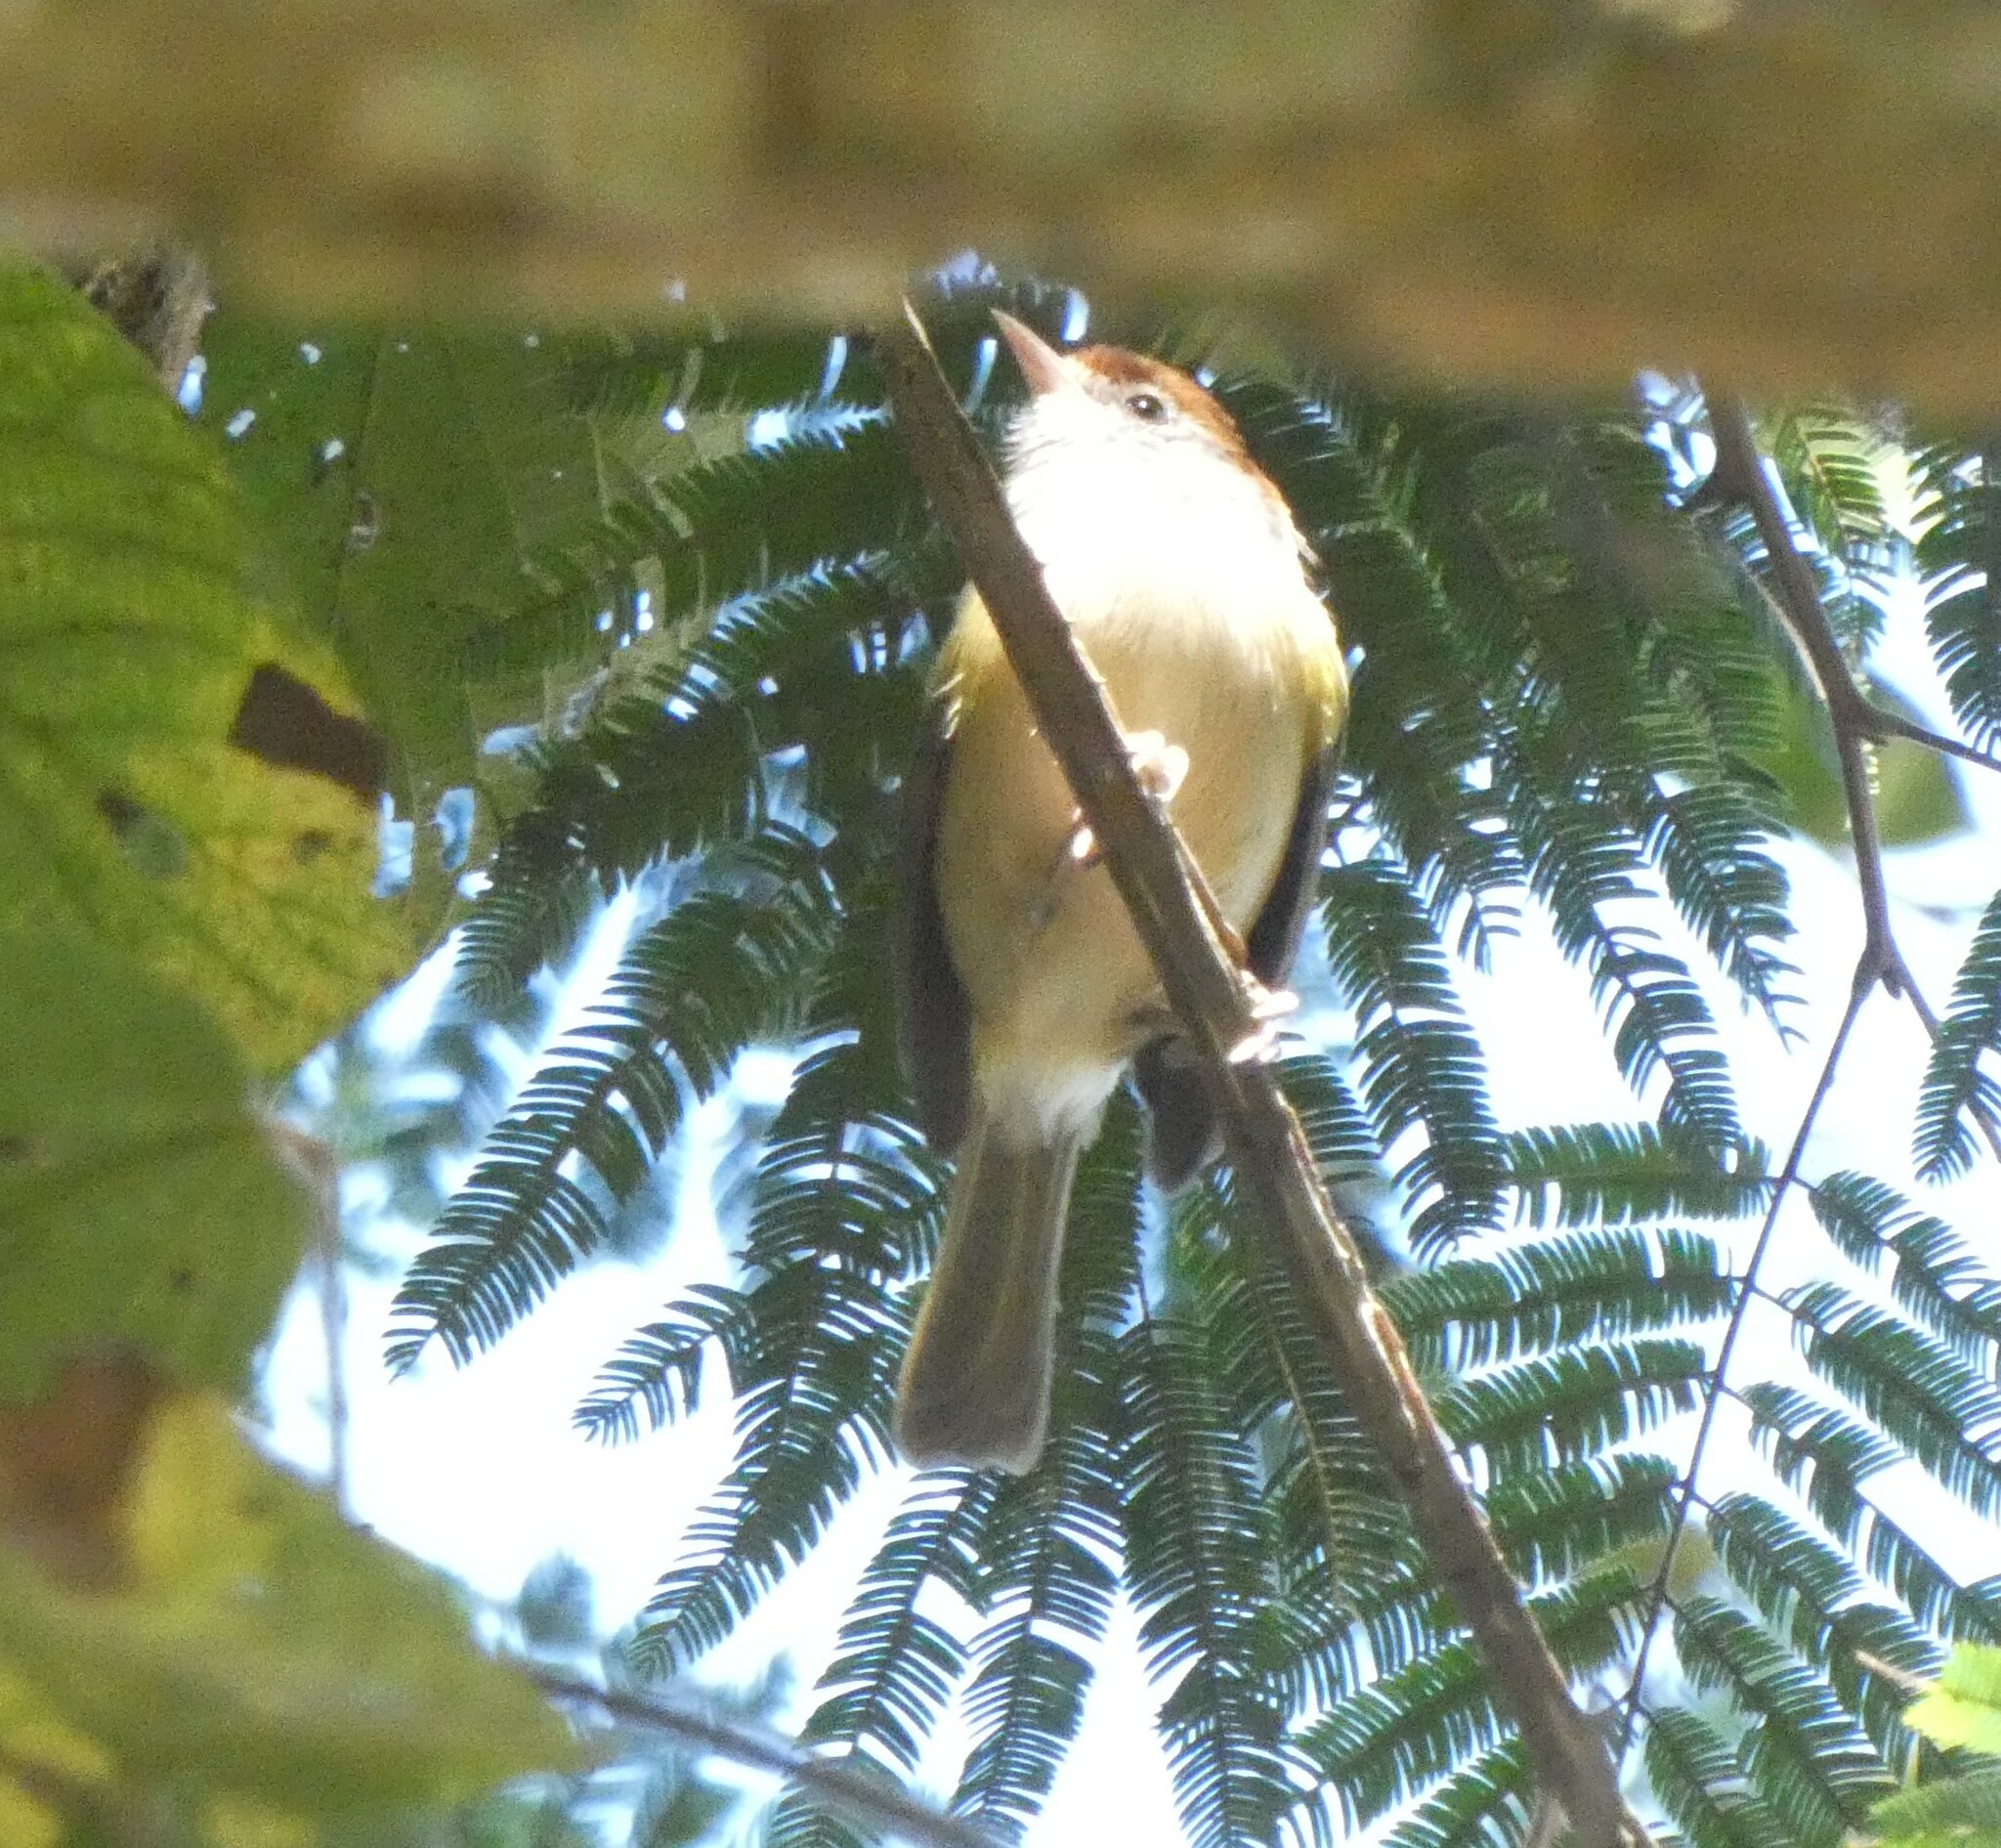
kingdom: Animalia
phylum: Chordata
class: Aves
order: Passeriformes
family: Vireonidae
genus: Hylophilus
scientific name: Hylophilus amaurocephalus
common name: Grey-eyed greenlet
